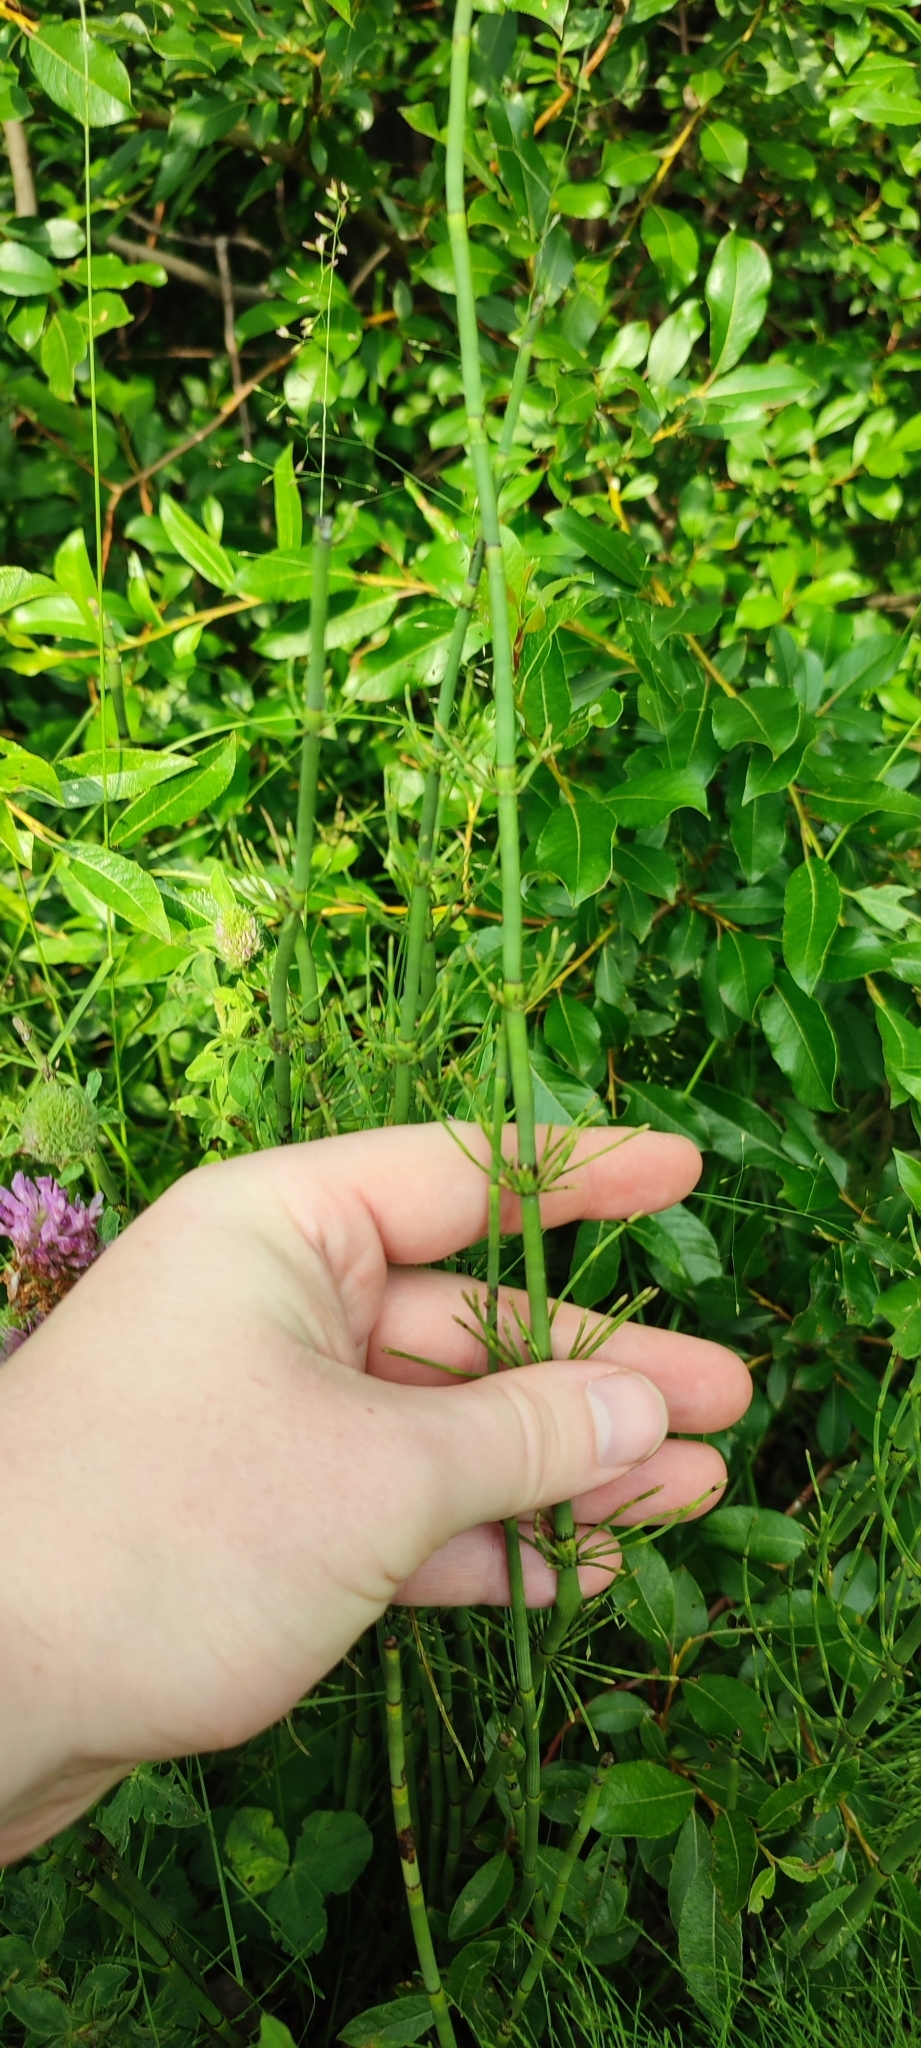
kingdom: Plantae
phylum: Tracheophyta
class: Polypodiopsida
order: Equisetales
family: Equisetaceae
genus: Equisetum
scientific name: Equisetum fluviatile
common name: Water horsetail
